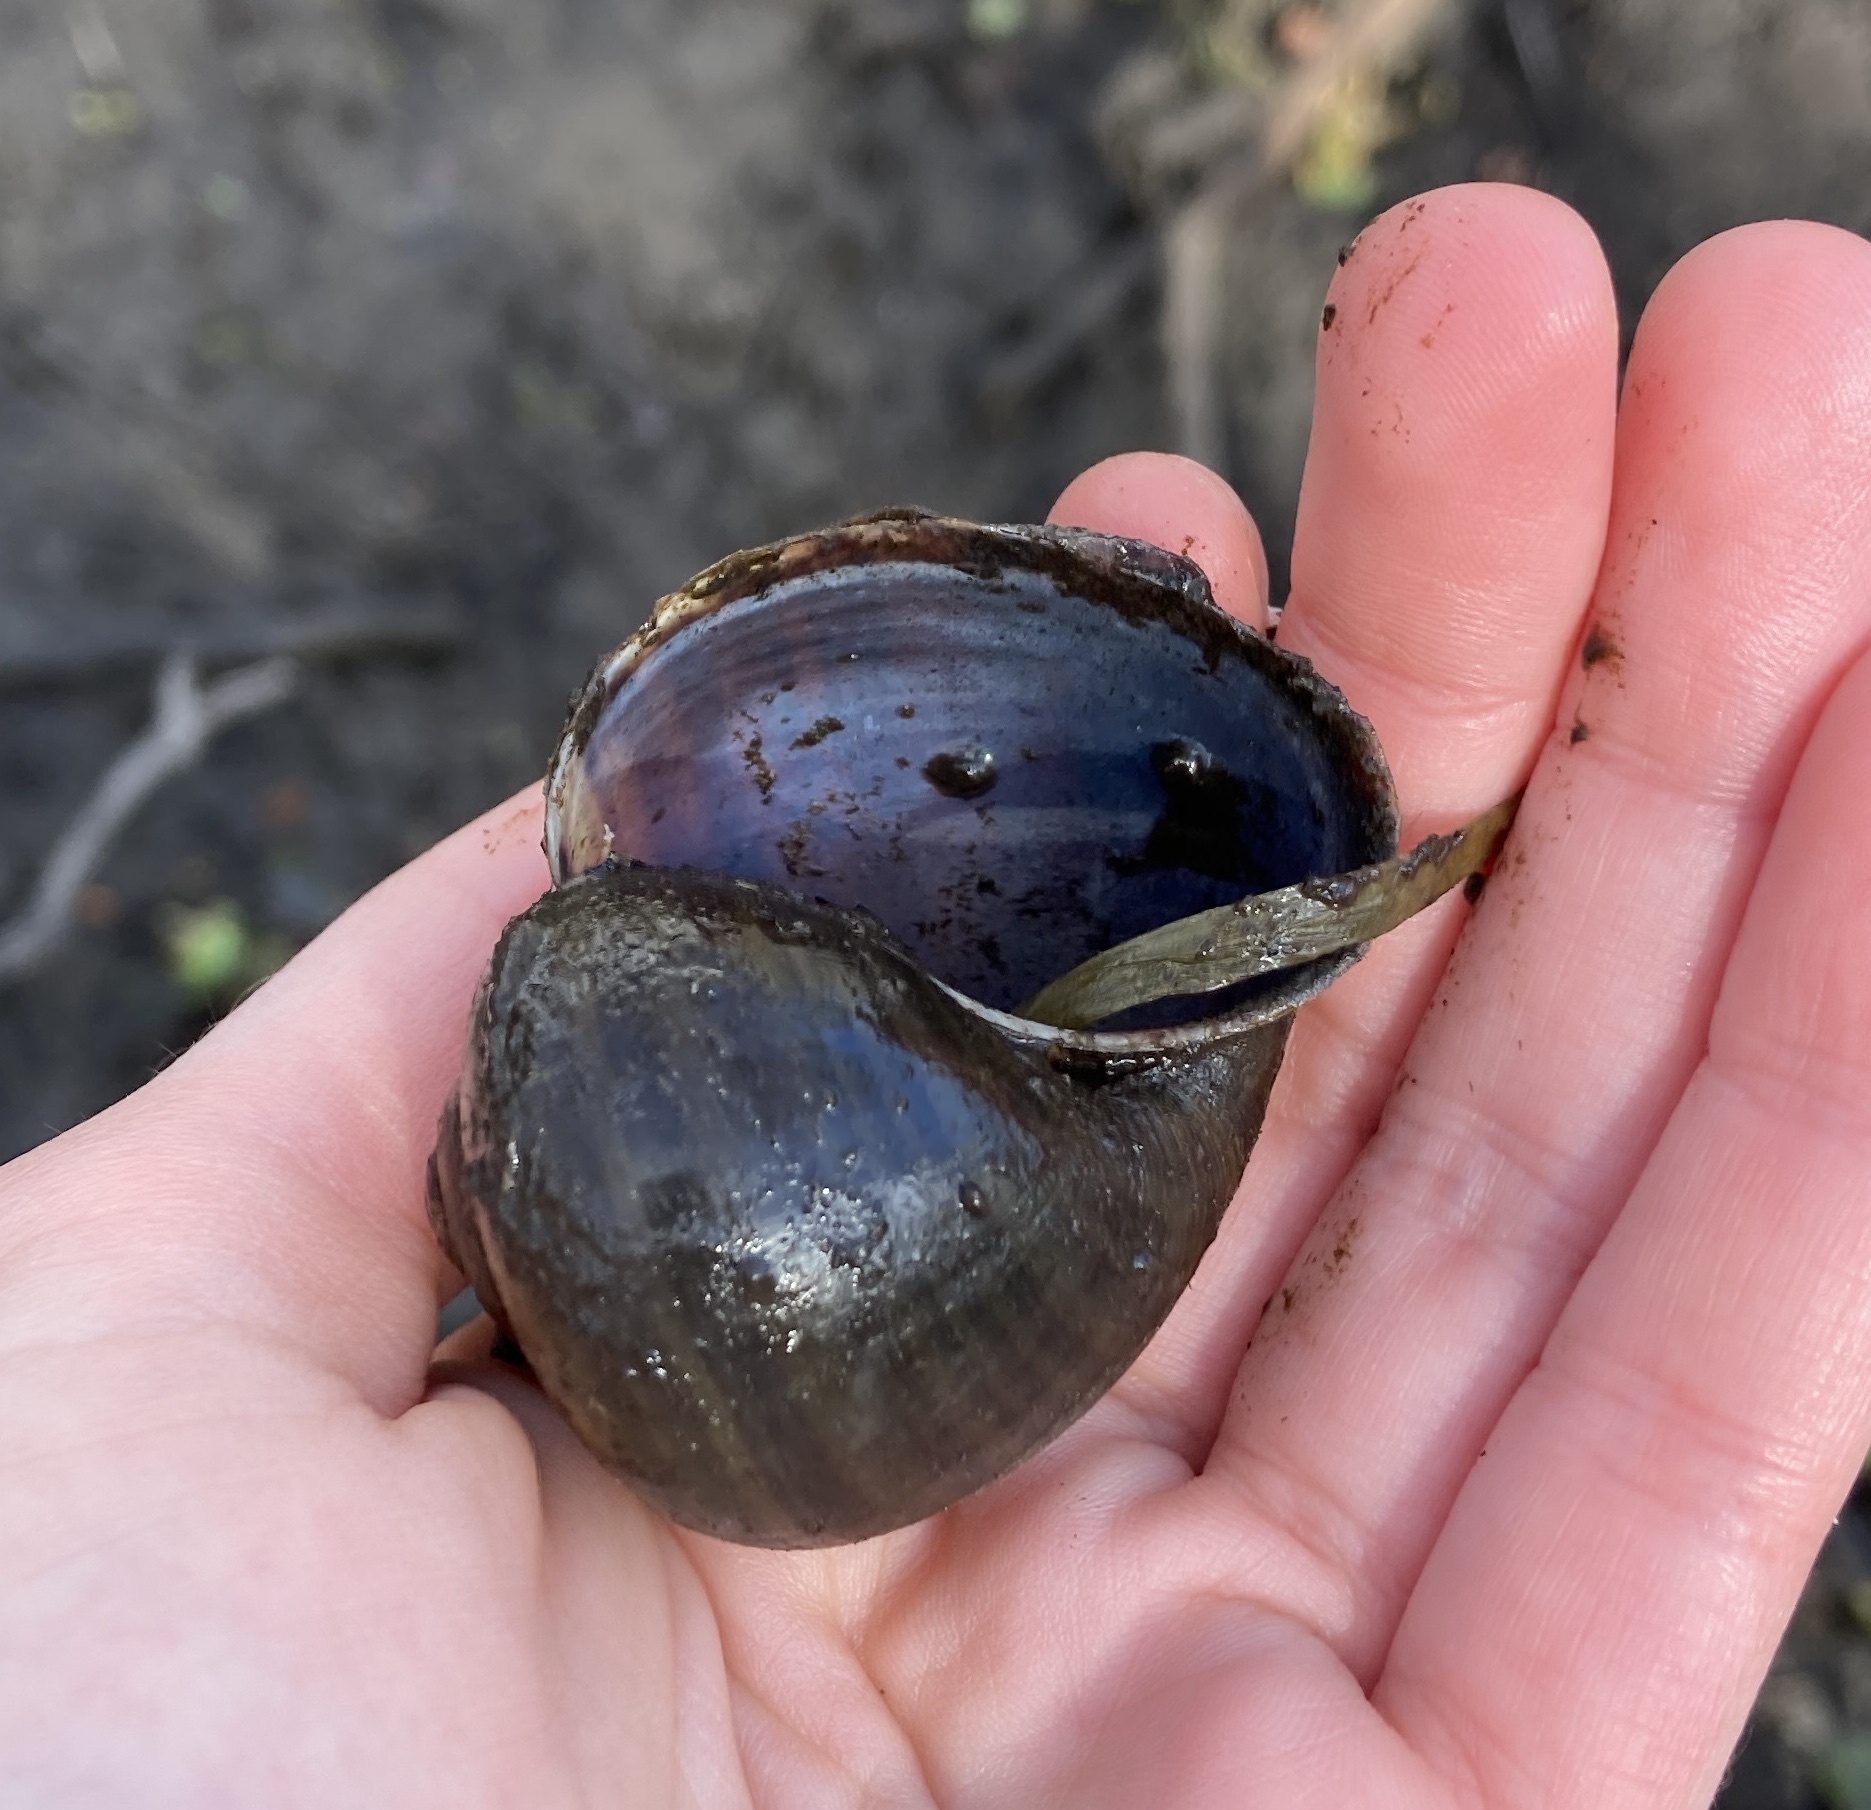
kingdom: Animalia
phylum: Mollusca
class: Gastropoda
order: Architaenioglossa
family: Ampullariidae
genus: Pomacea
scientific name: Pomacea paludosa
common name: Florida applesnail
